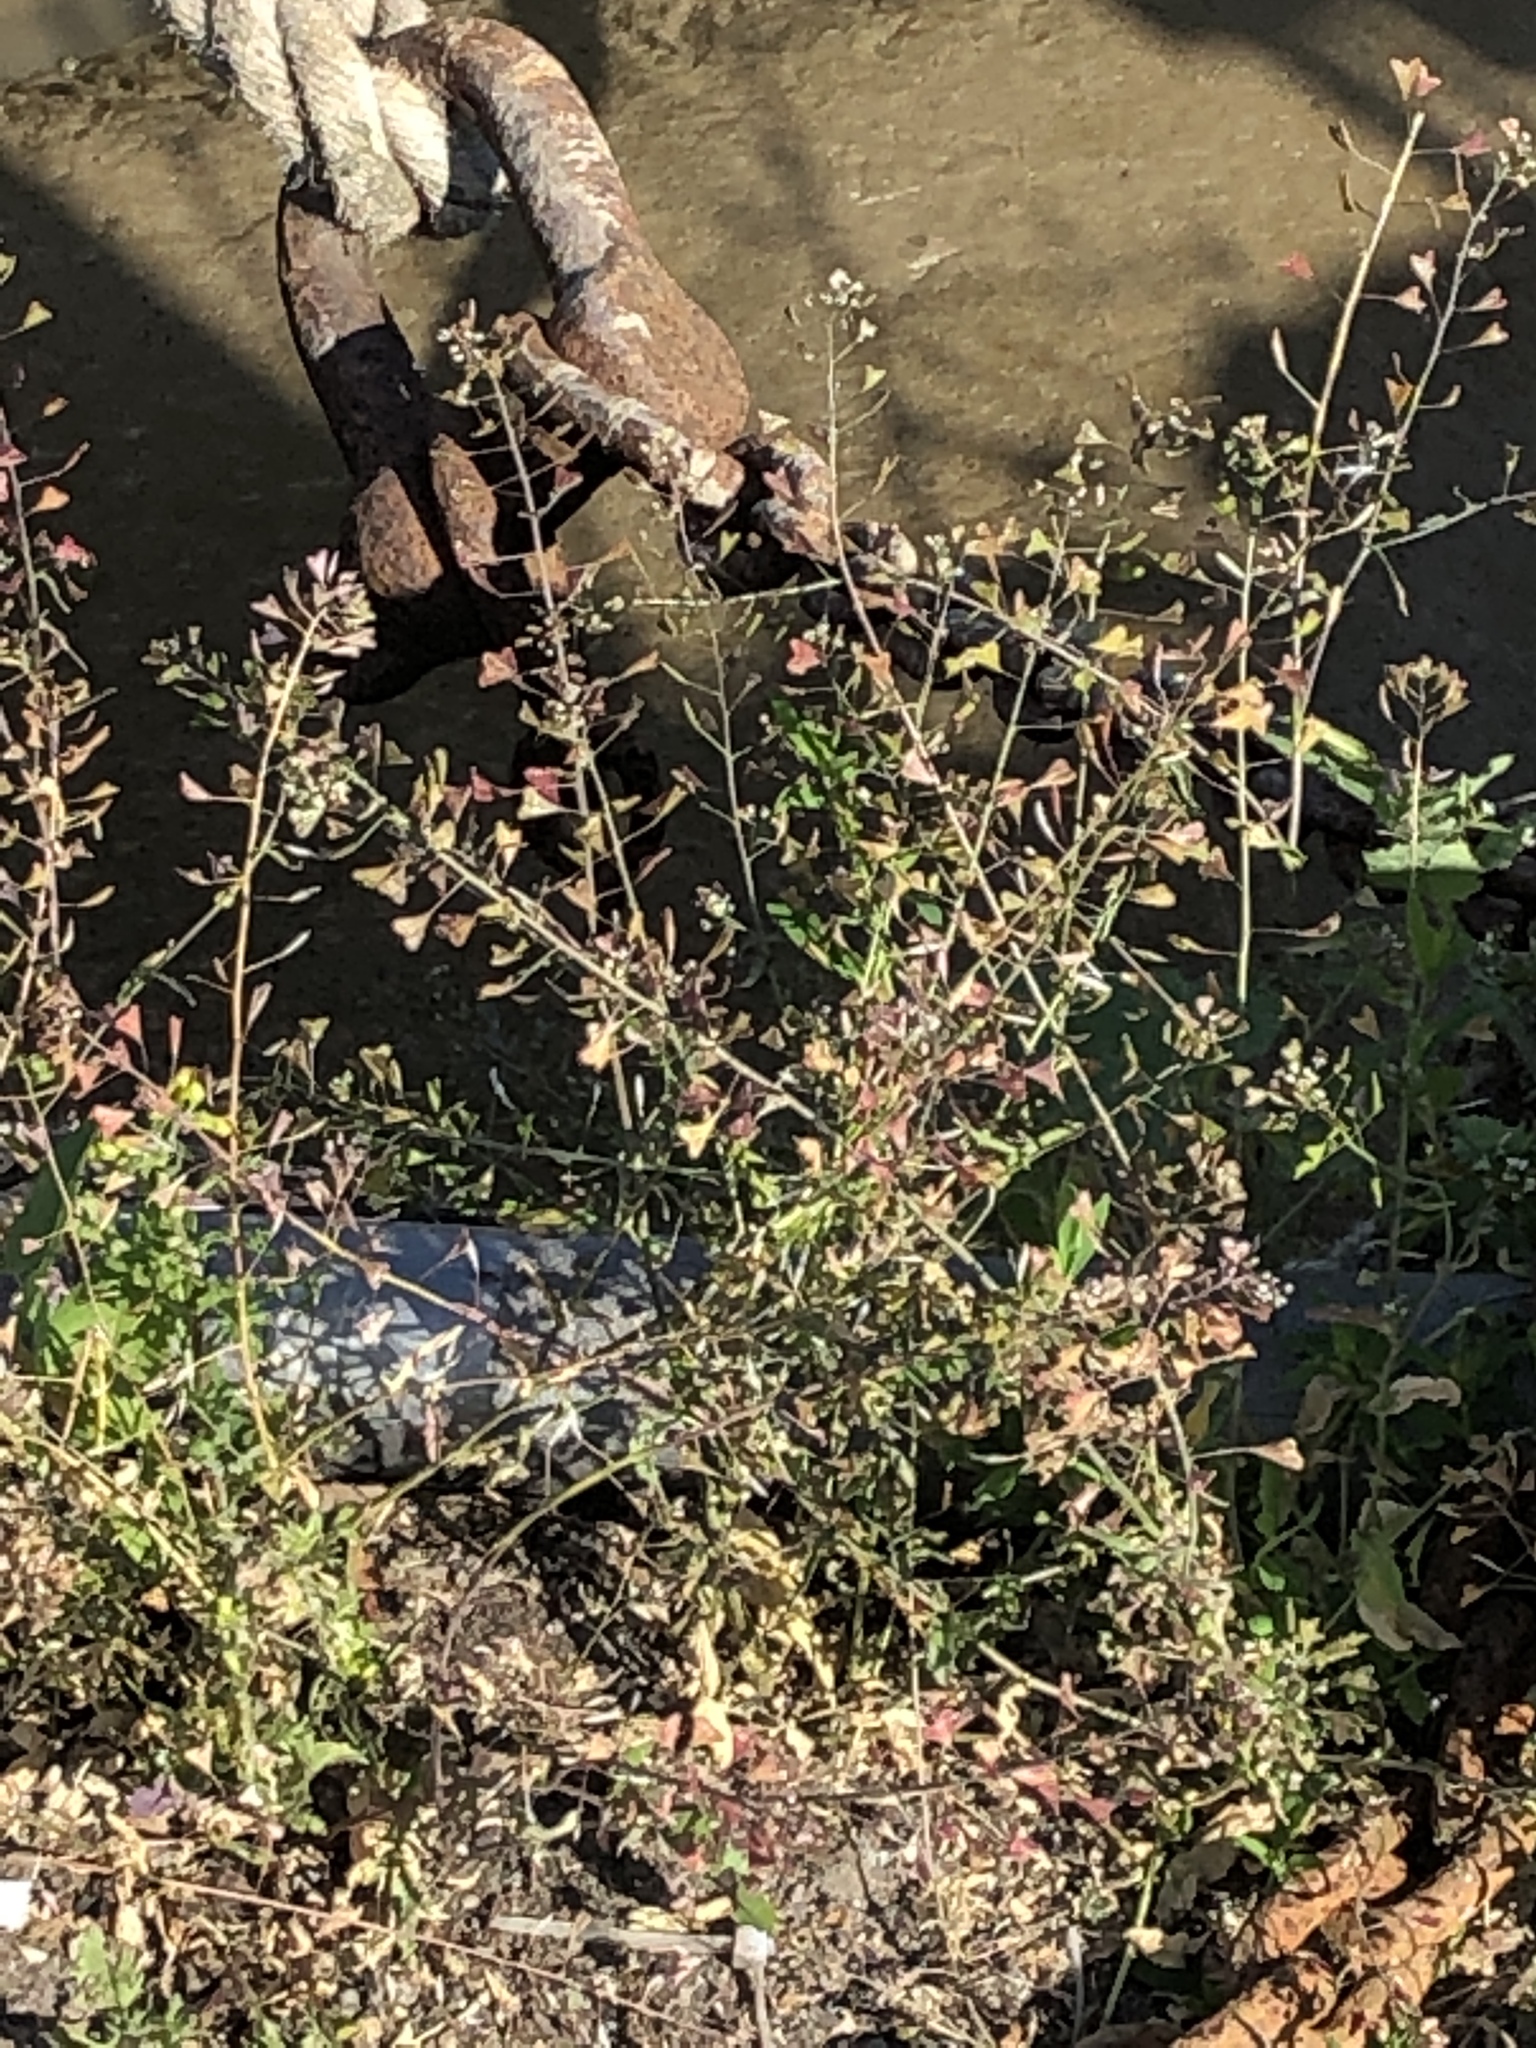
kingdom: Plantae
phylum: Tracheophyta
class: Magnoliopsida
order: Brassicales
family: Brassicaceae
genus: Capsella
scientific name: Capsella bursa-pastoris
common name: Shepherd's purse
